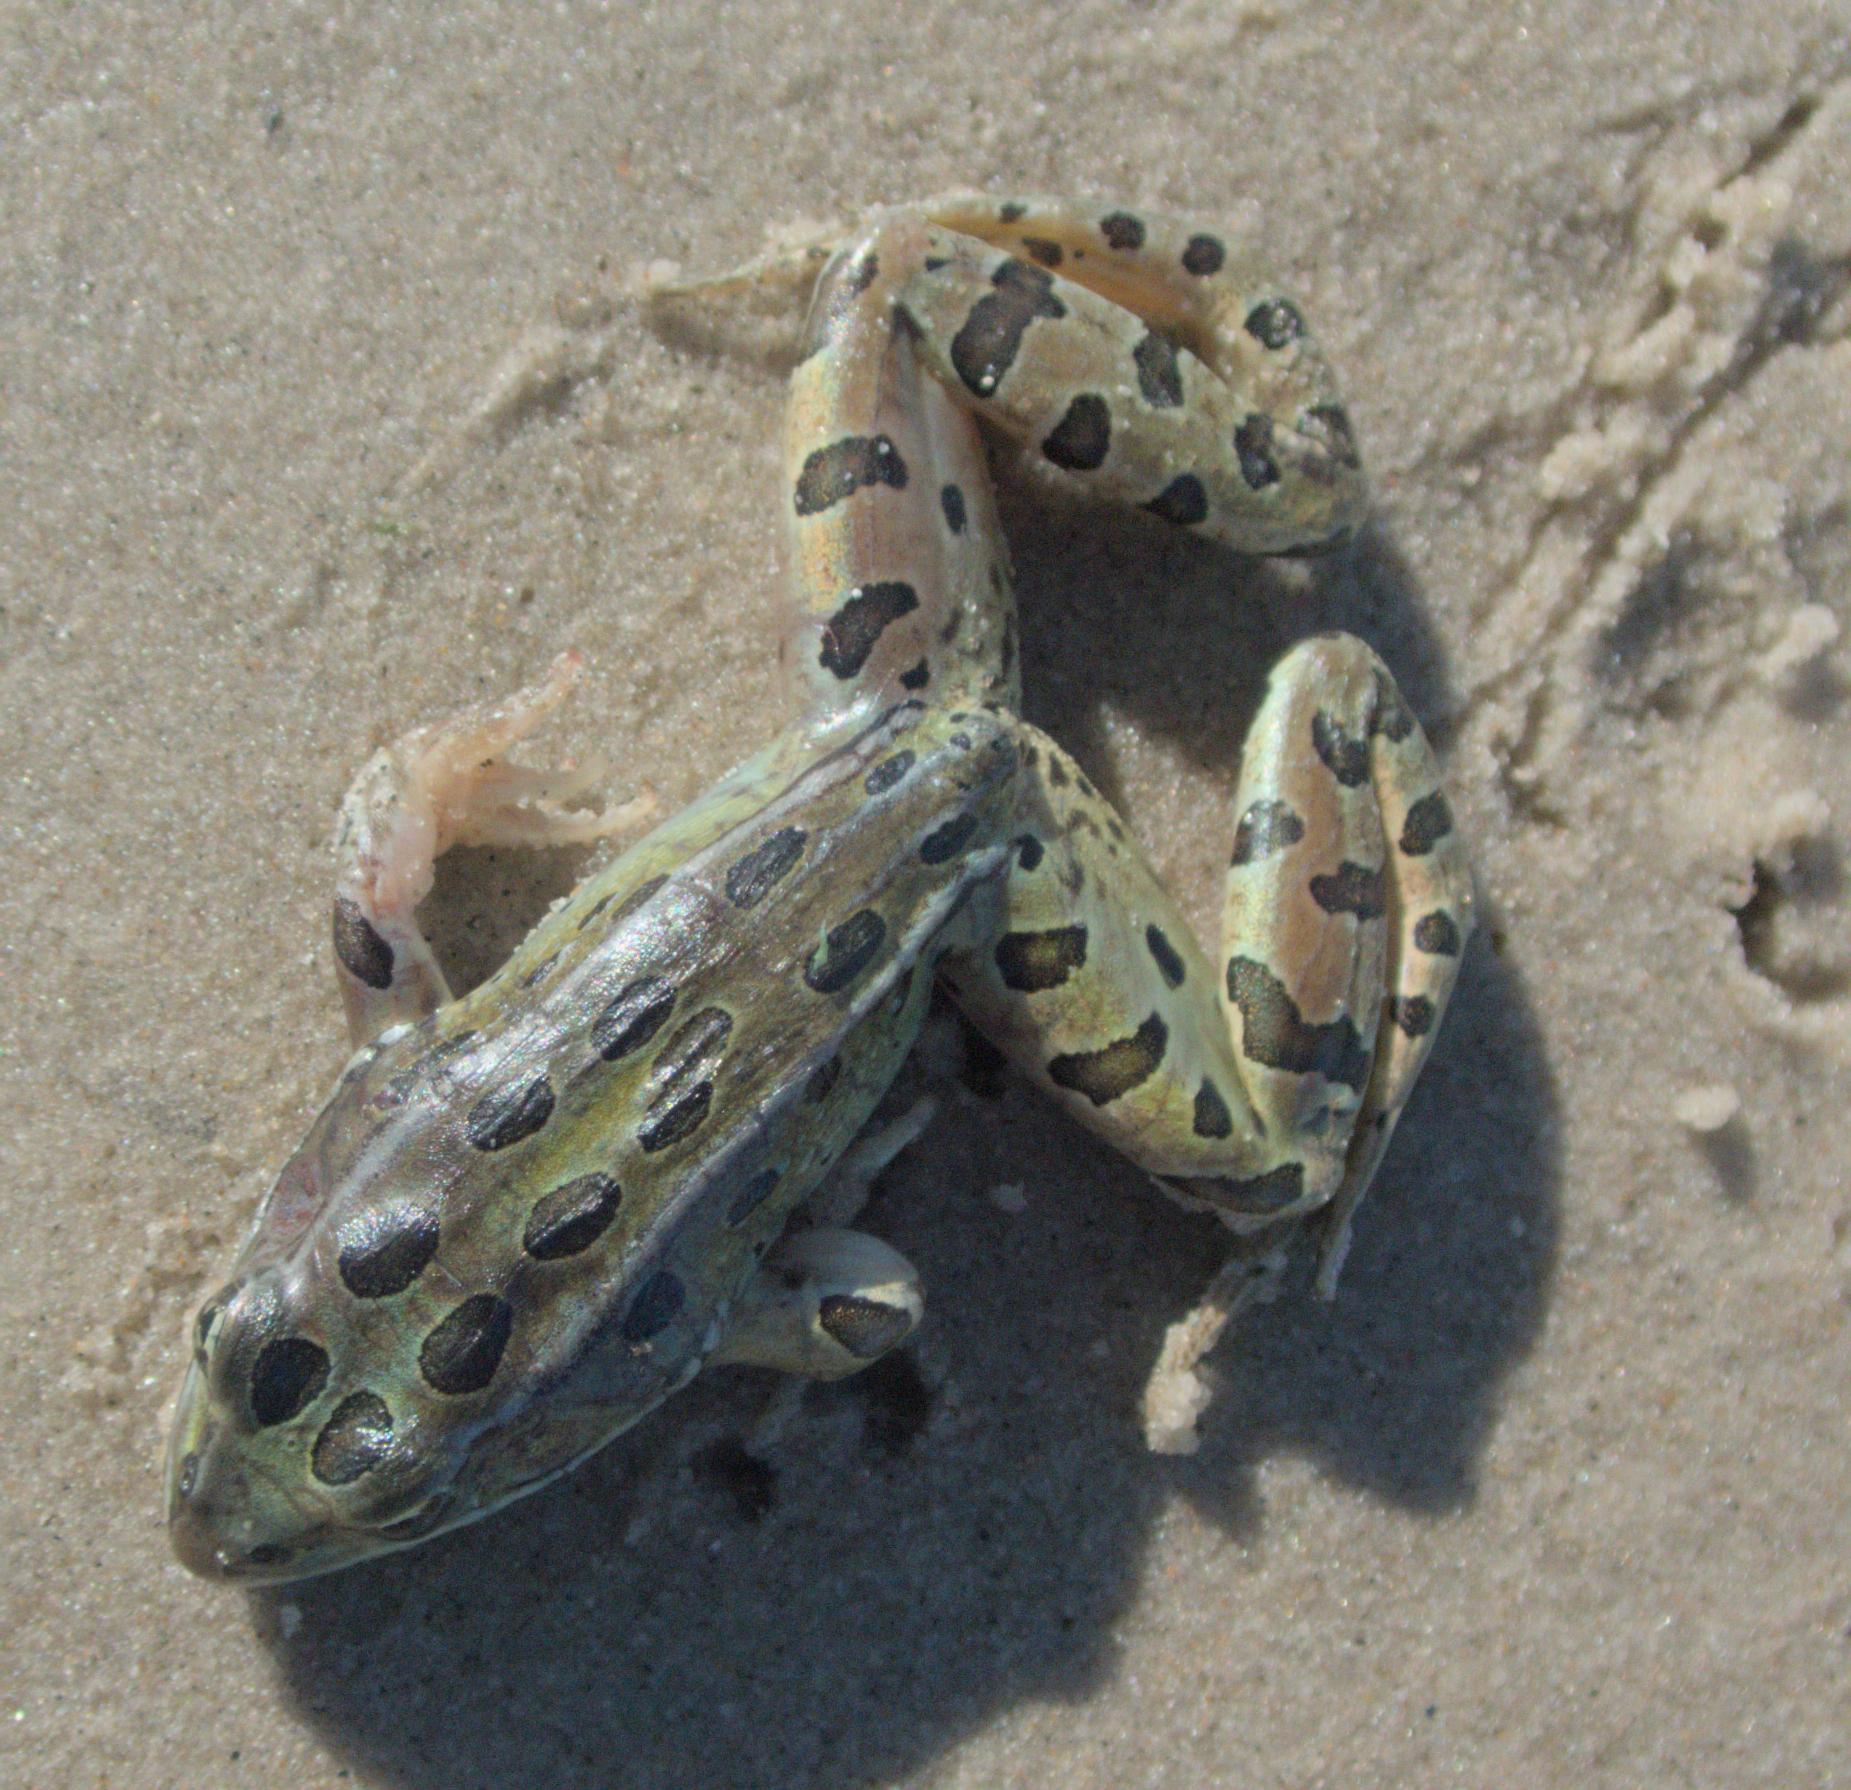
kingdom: Animalia
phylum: Chordata
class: Amphibia
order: Anura
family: Ranidae
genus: Lithobates
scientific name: Lithobates pipiens
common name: Northern leopard frog
